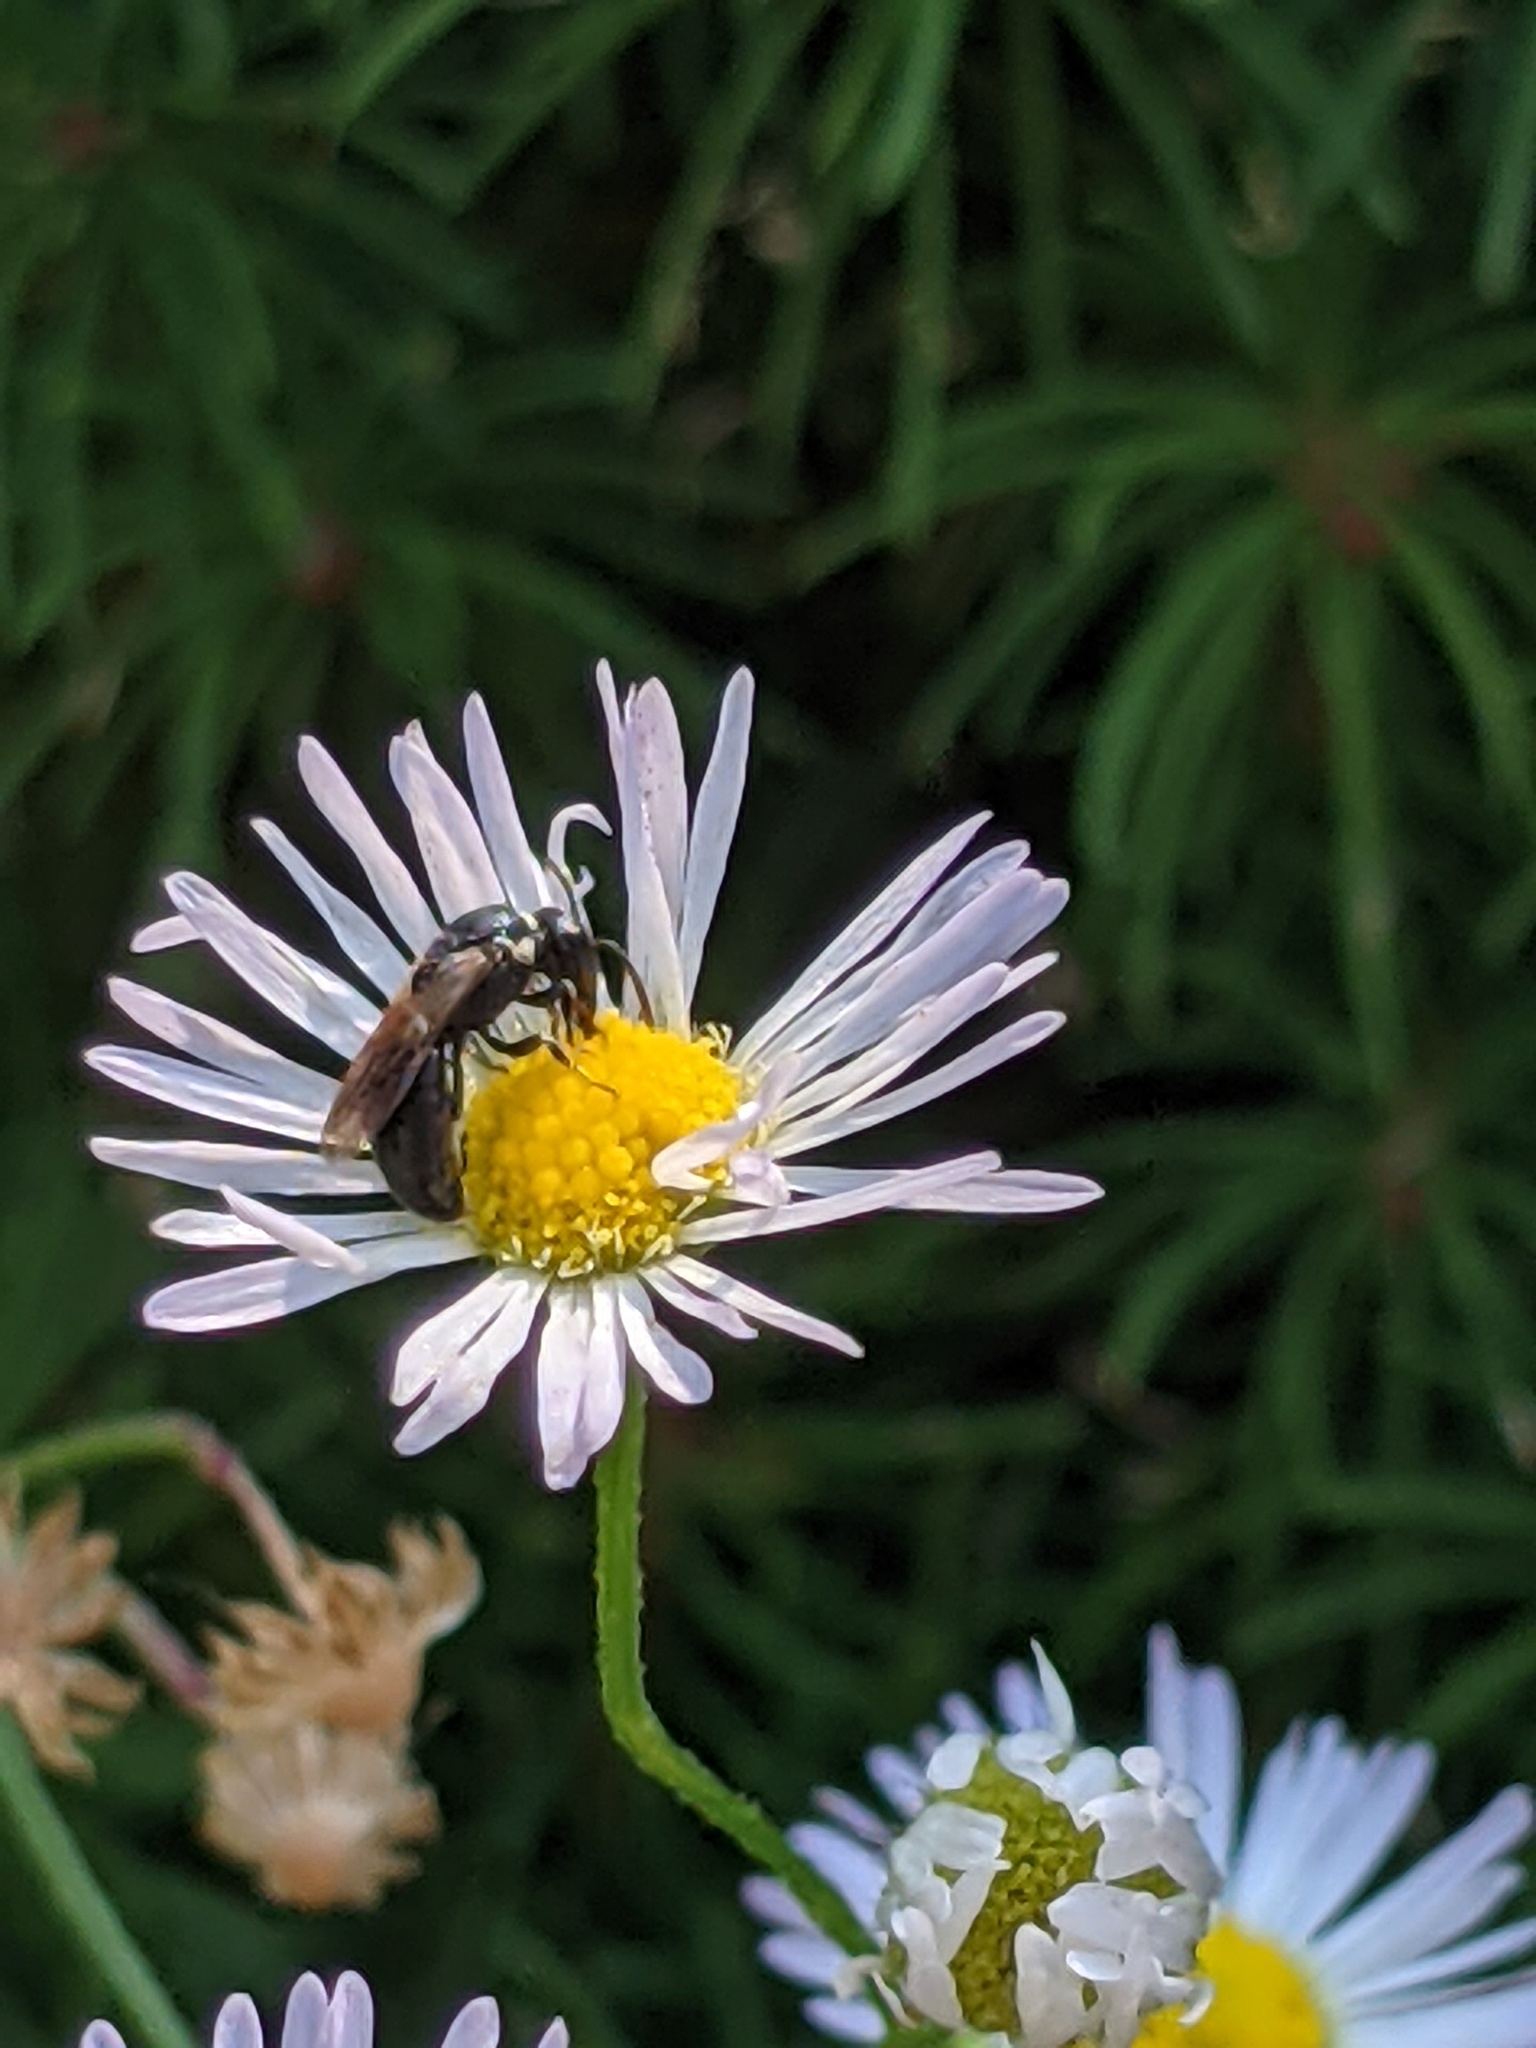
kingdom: Animalia
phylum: Arthropoda
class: Insecta
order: Hymenoptera
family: Colletidae
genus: Hylaeus
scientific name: Hylaeus leptocephalus
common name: Slender-faced masked bee
